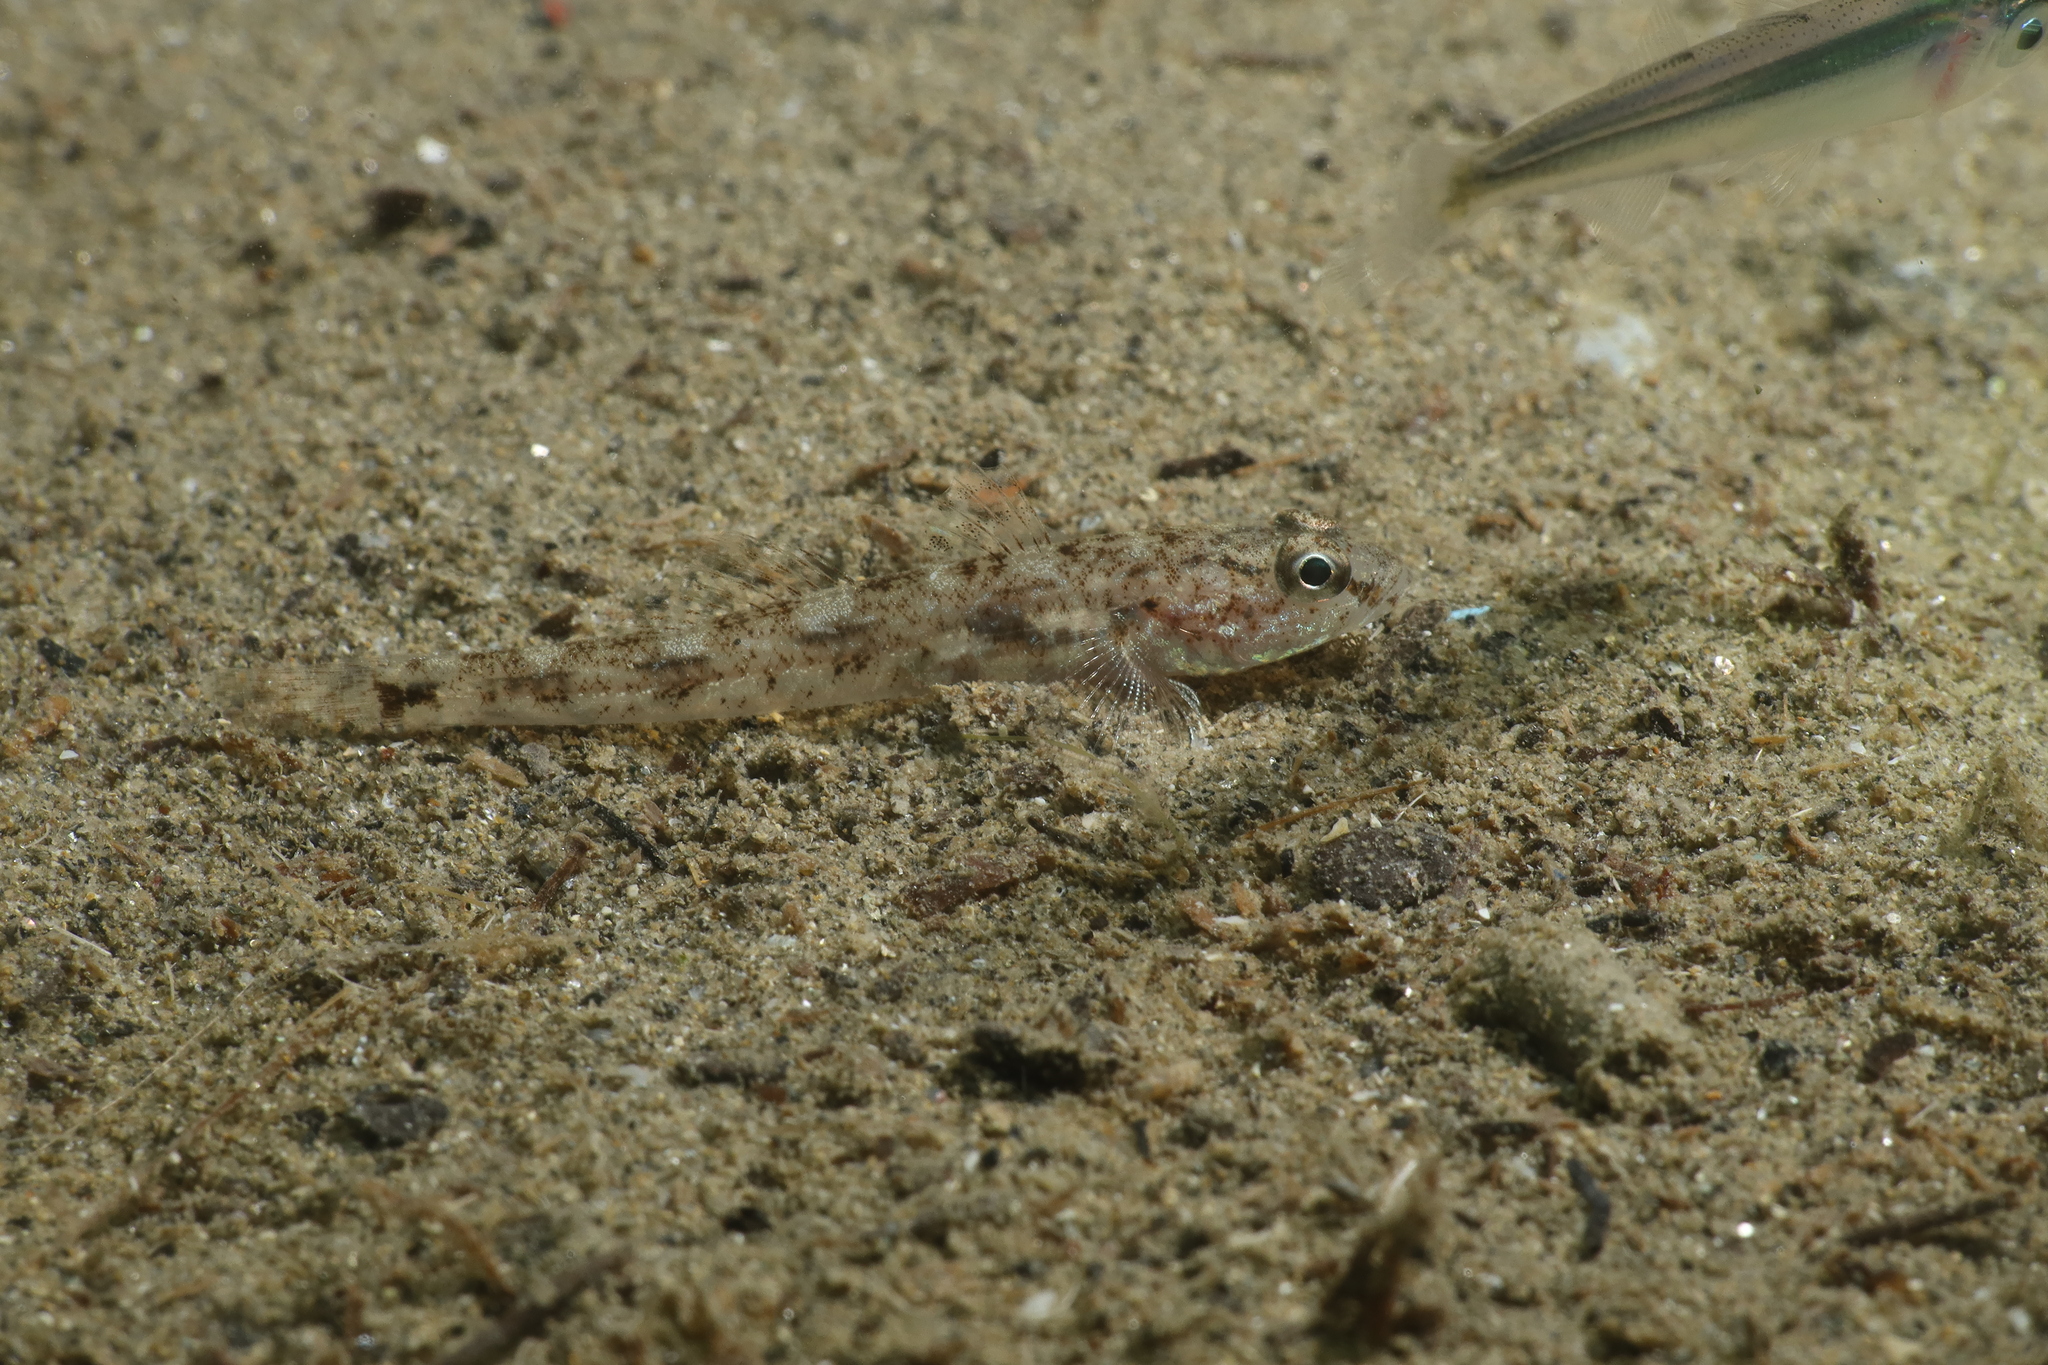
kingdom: Animalia
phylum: Chordata
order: Perciformes
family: Gobiidae
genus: Pomatoschistus
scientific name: Pomatoschistus minutus
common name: Sand goby
